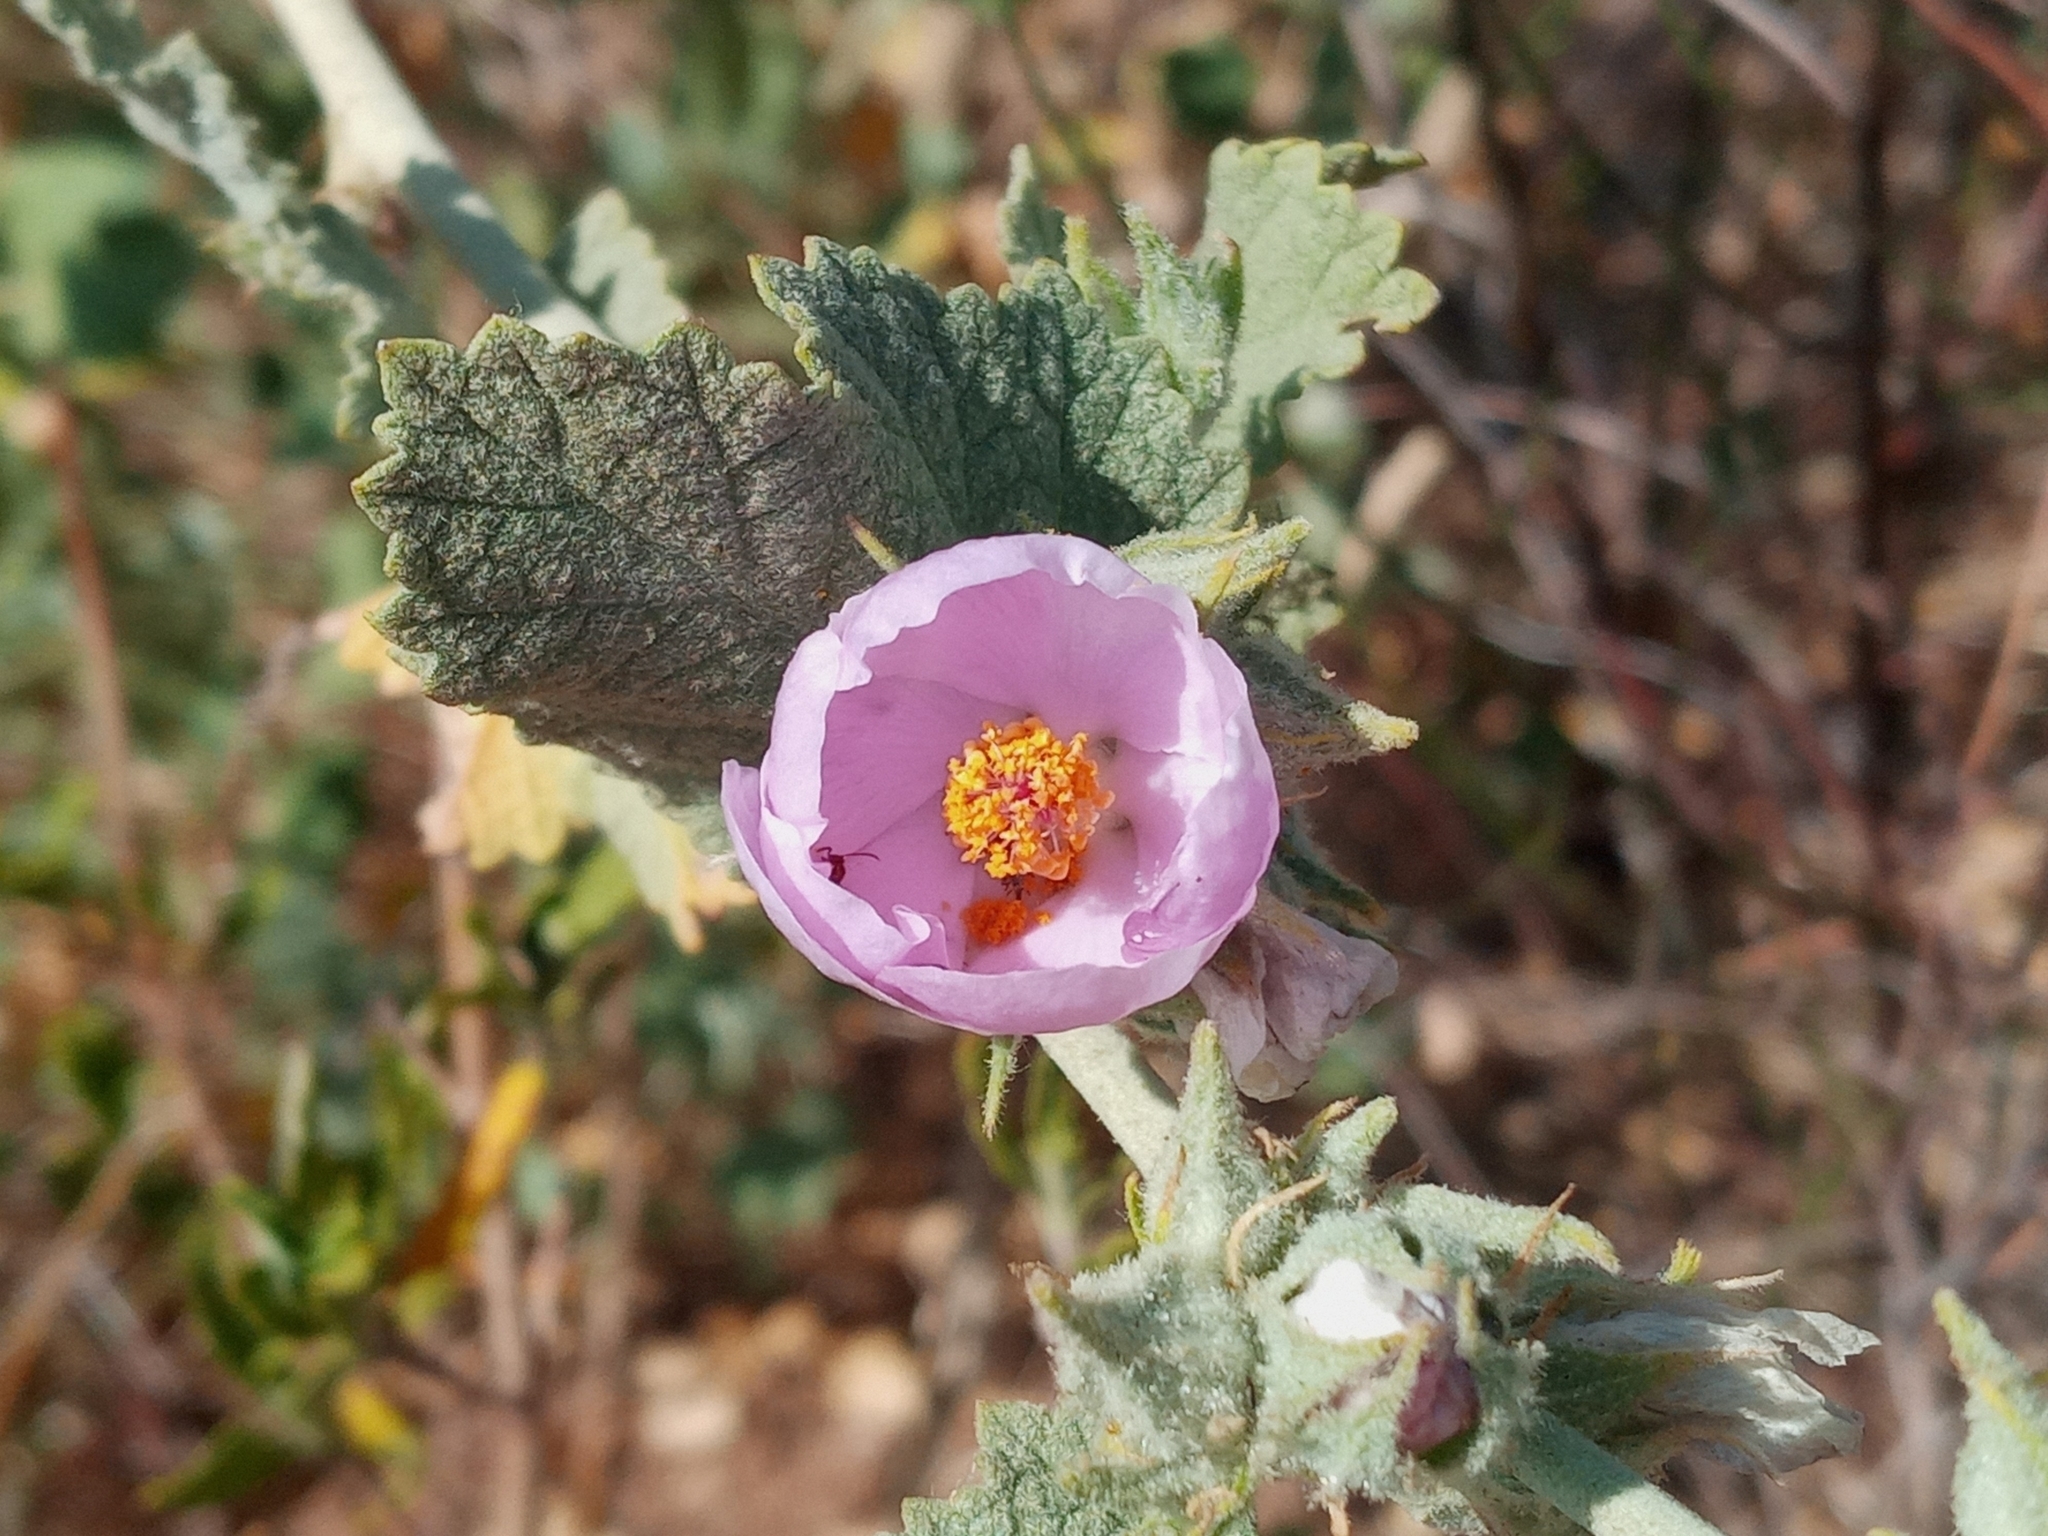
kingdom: Plantae
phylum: Tracheophyta
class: Magnoliopsida
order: Malvales
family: Malvaceae
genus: Malacothamnus
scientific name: Malacothamnus marrubioides
